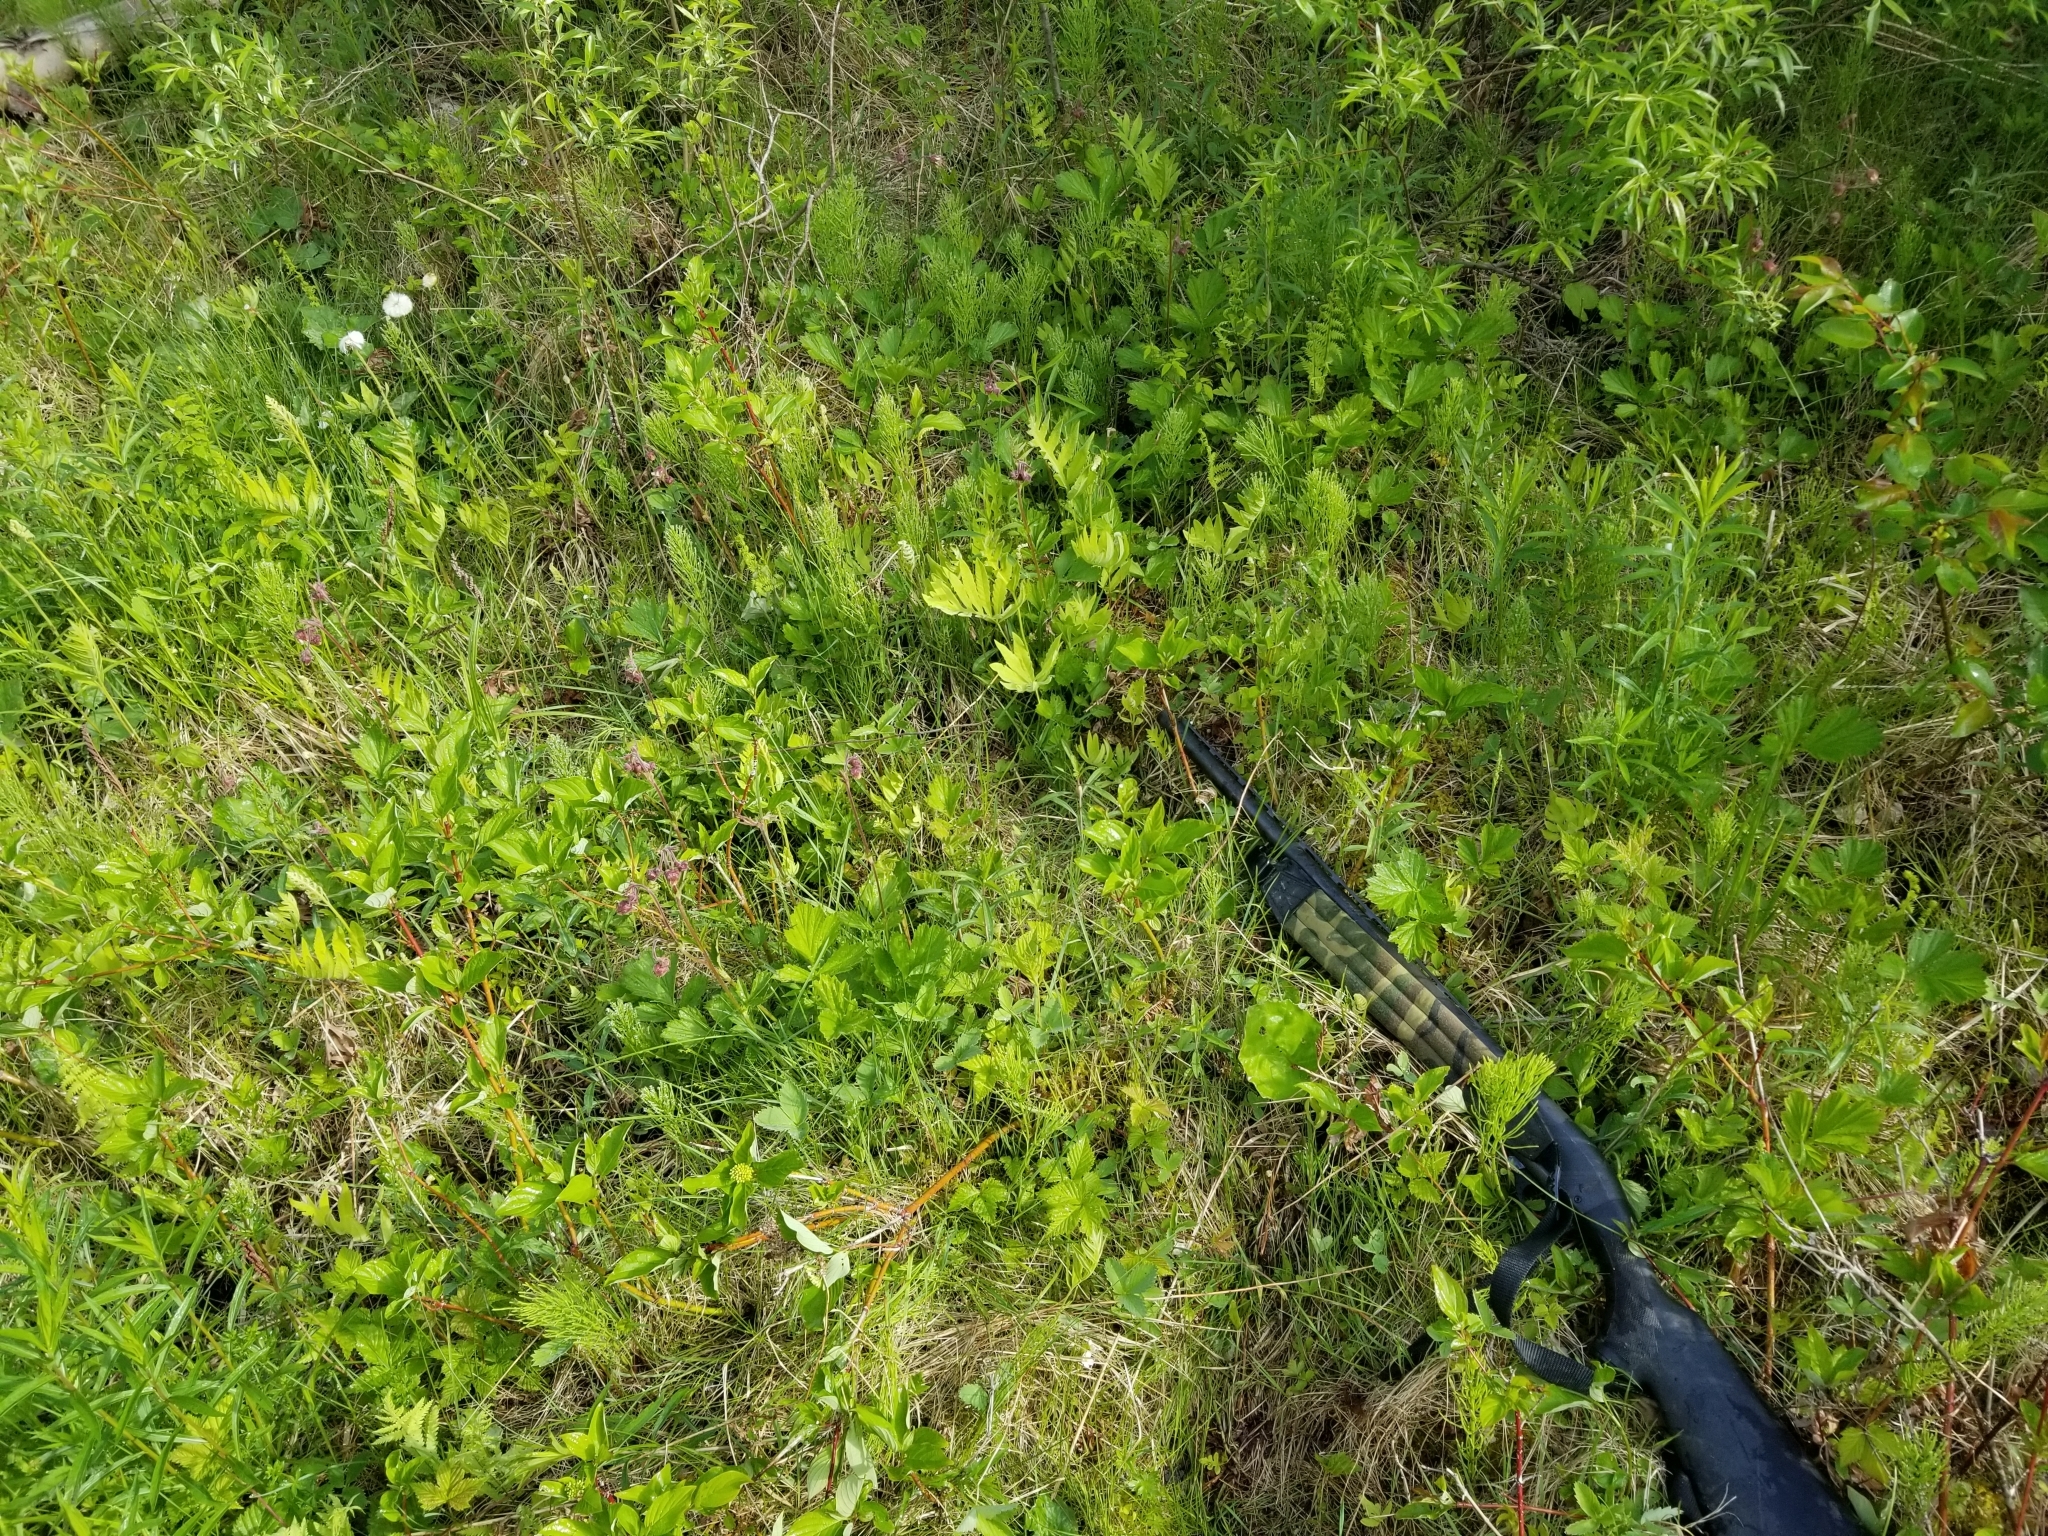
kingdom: Plantae
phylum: Tracheophyta
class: Magnoliopsida
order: Rosales
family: Rosaceae
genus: Geum
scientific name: Geum rivale
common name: Water avens
